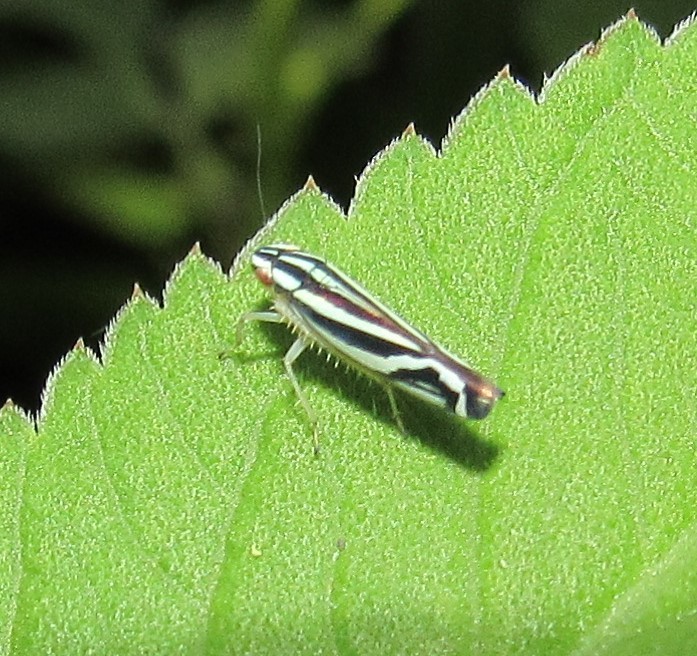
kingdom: Animalia
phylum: Arthropoda
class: Insecta
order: Hemiptera
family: Cicadellidae
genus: Sibovia
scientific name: Sibovia sagata
